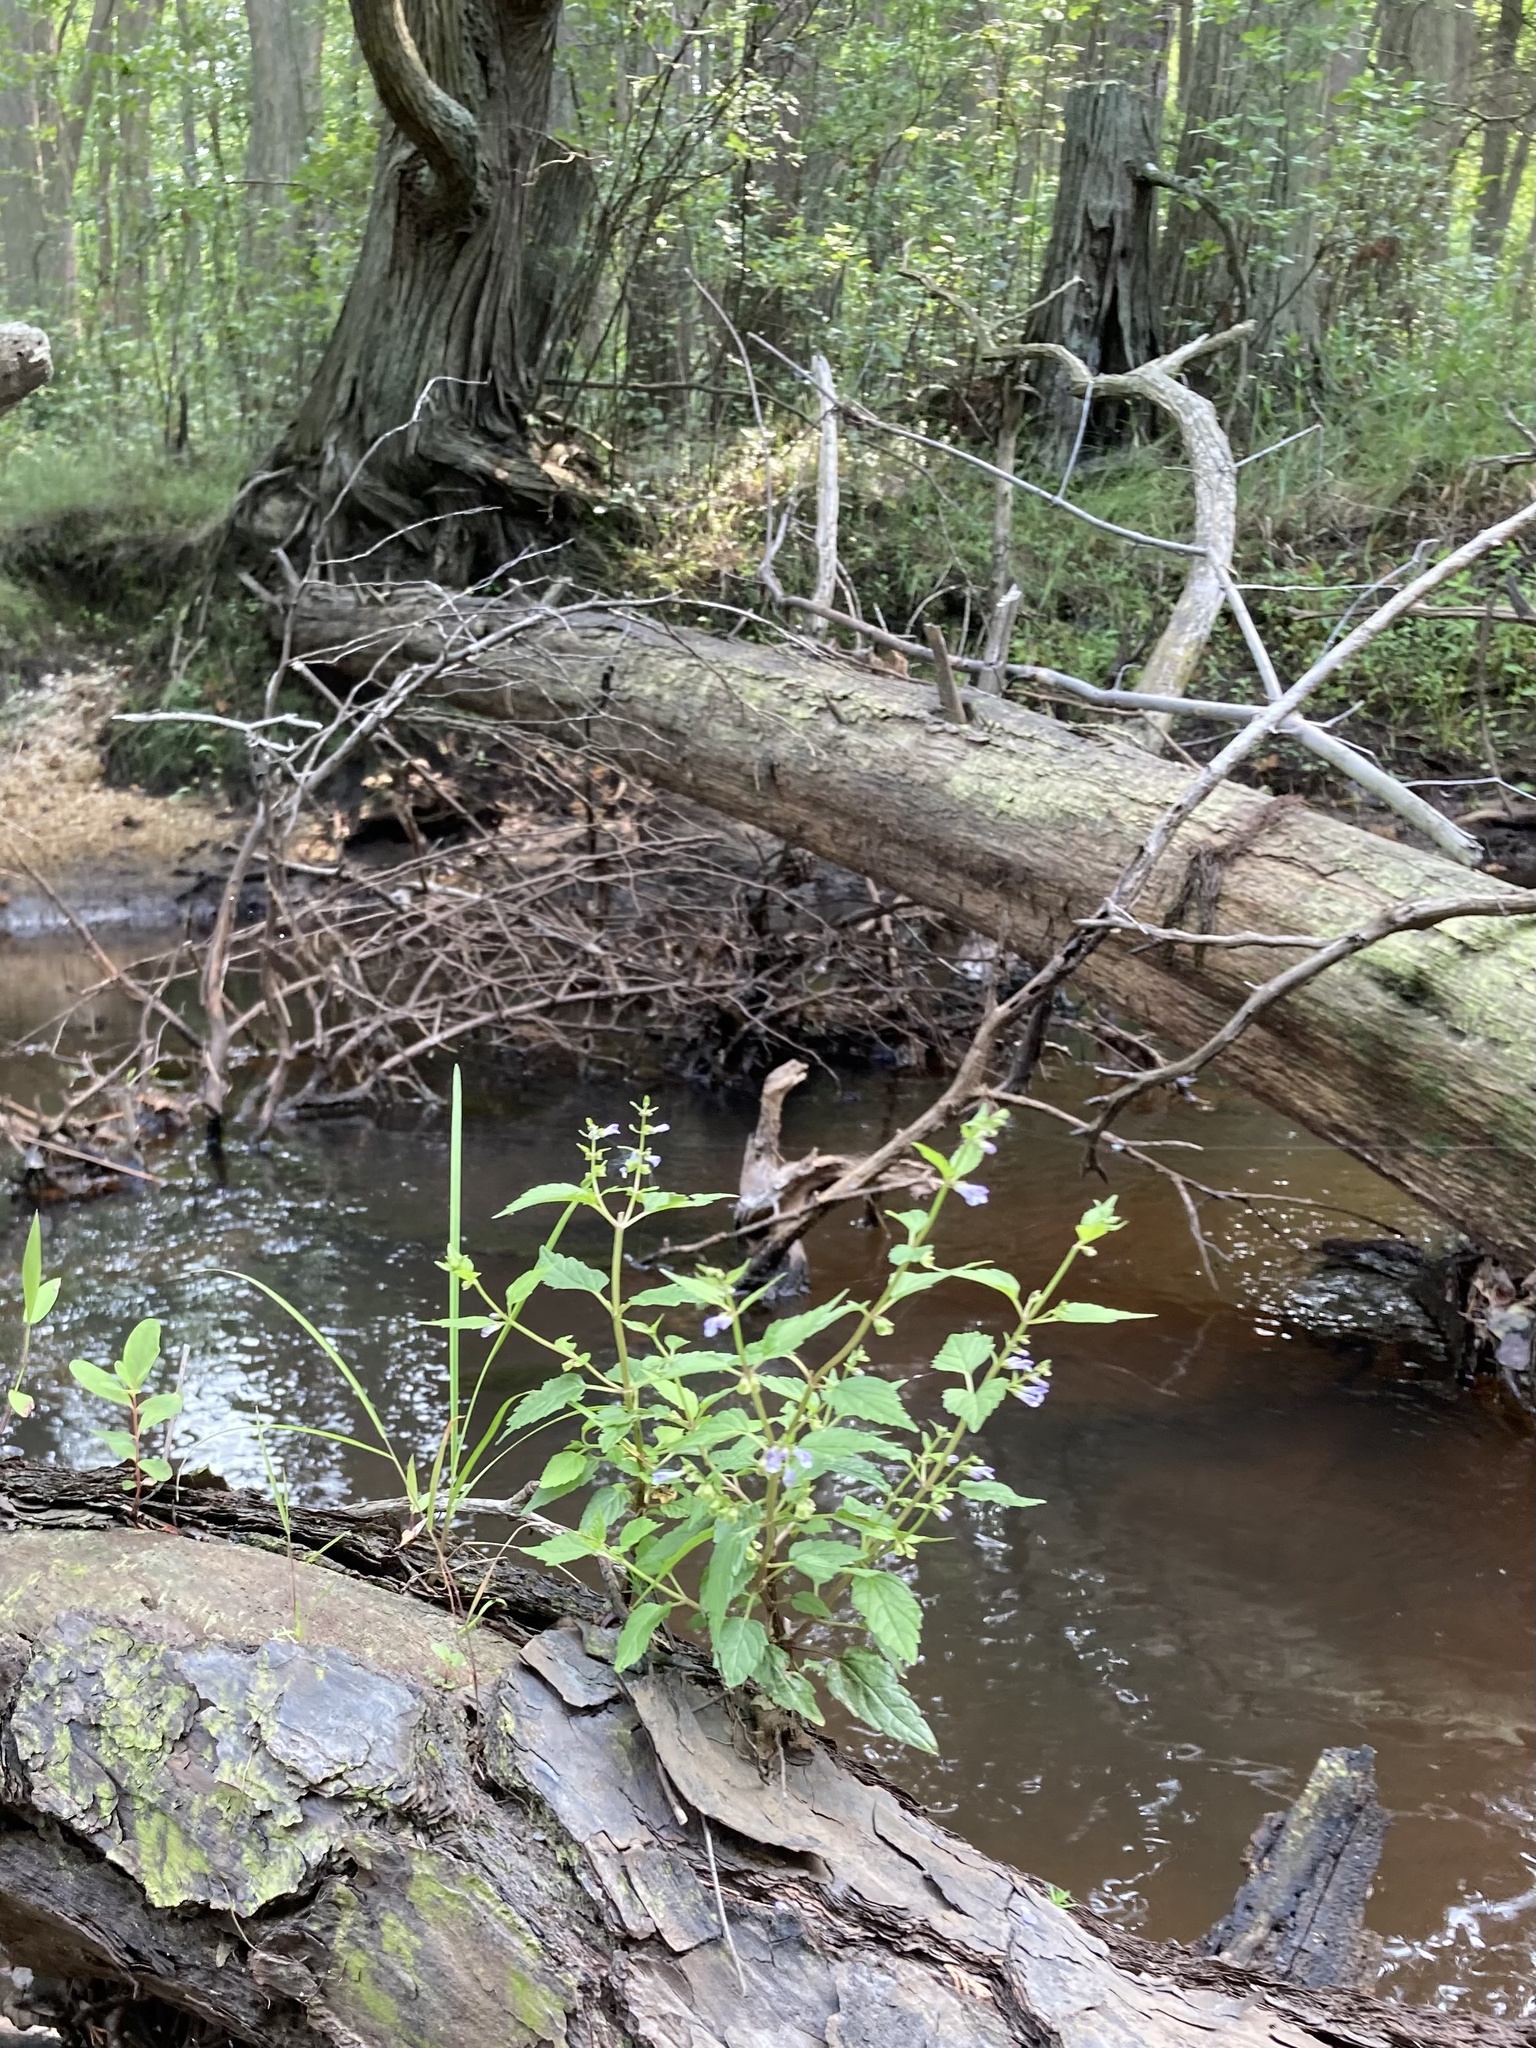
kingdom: Plantae
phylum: Tracheophyta
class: Magnoliopsida
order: Lamiales
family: Lamiaceae
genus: Scutellaria
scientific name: Scutellaria lateriflora
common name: Blue skullcap
